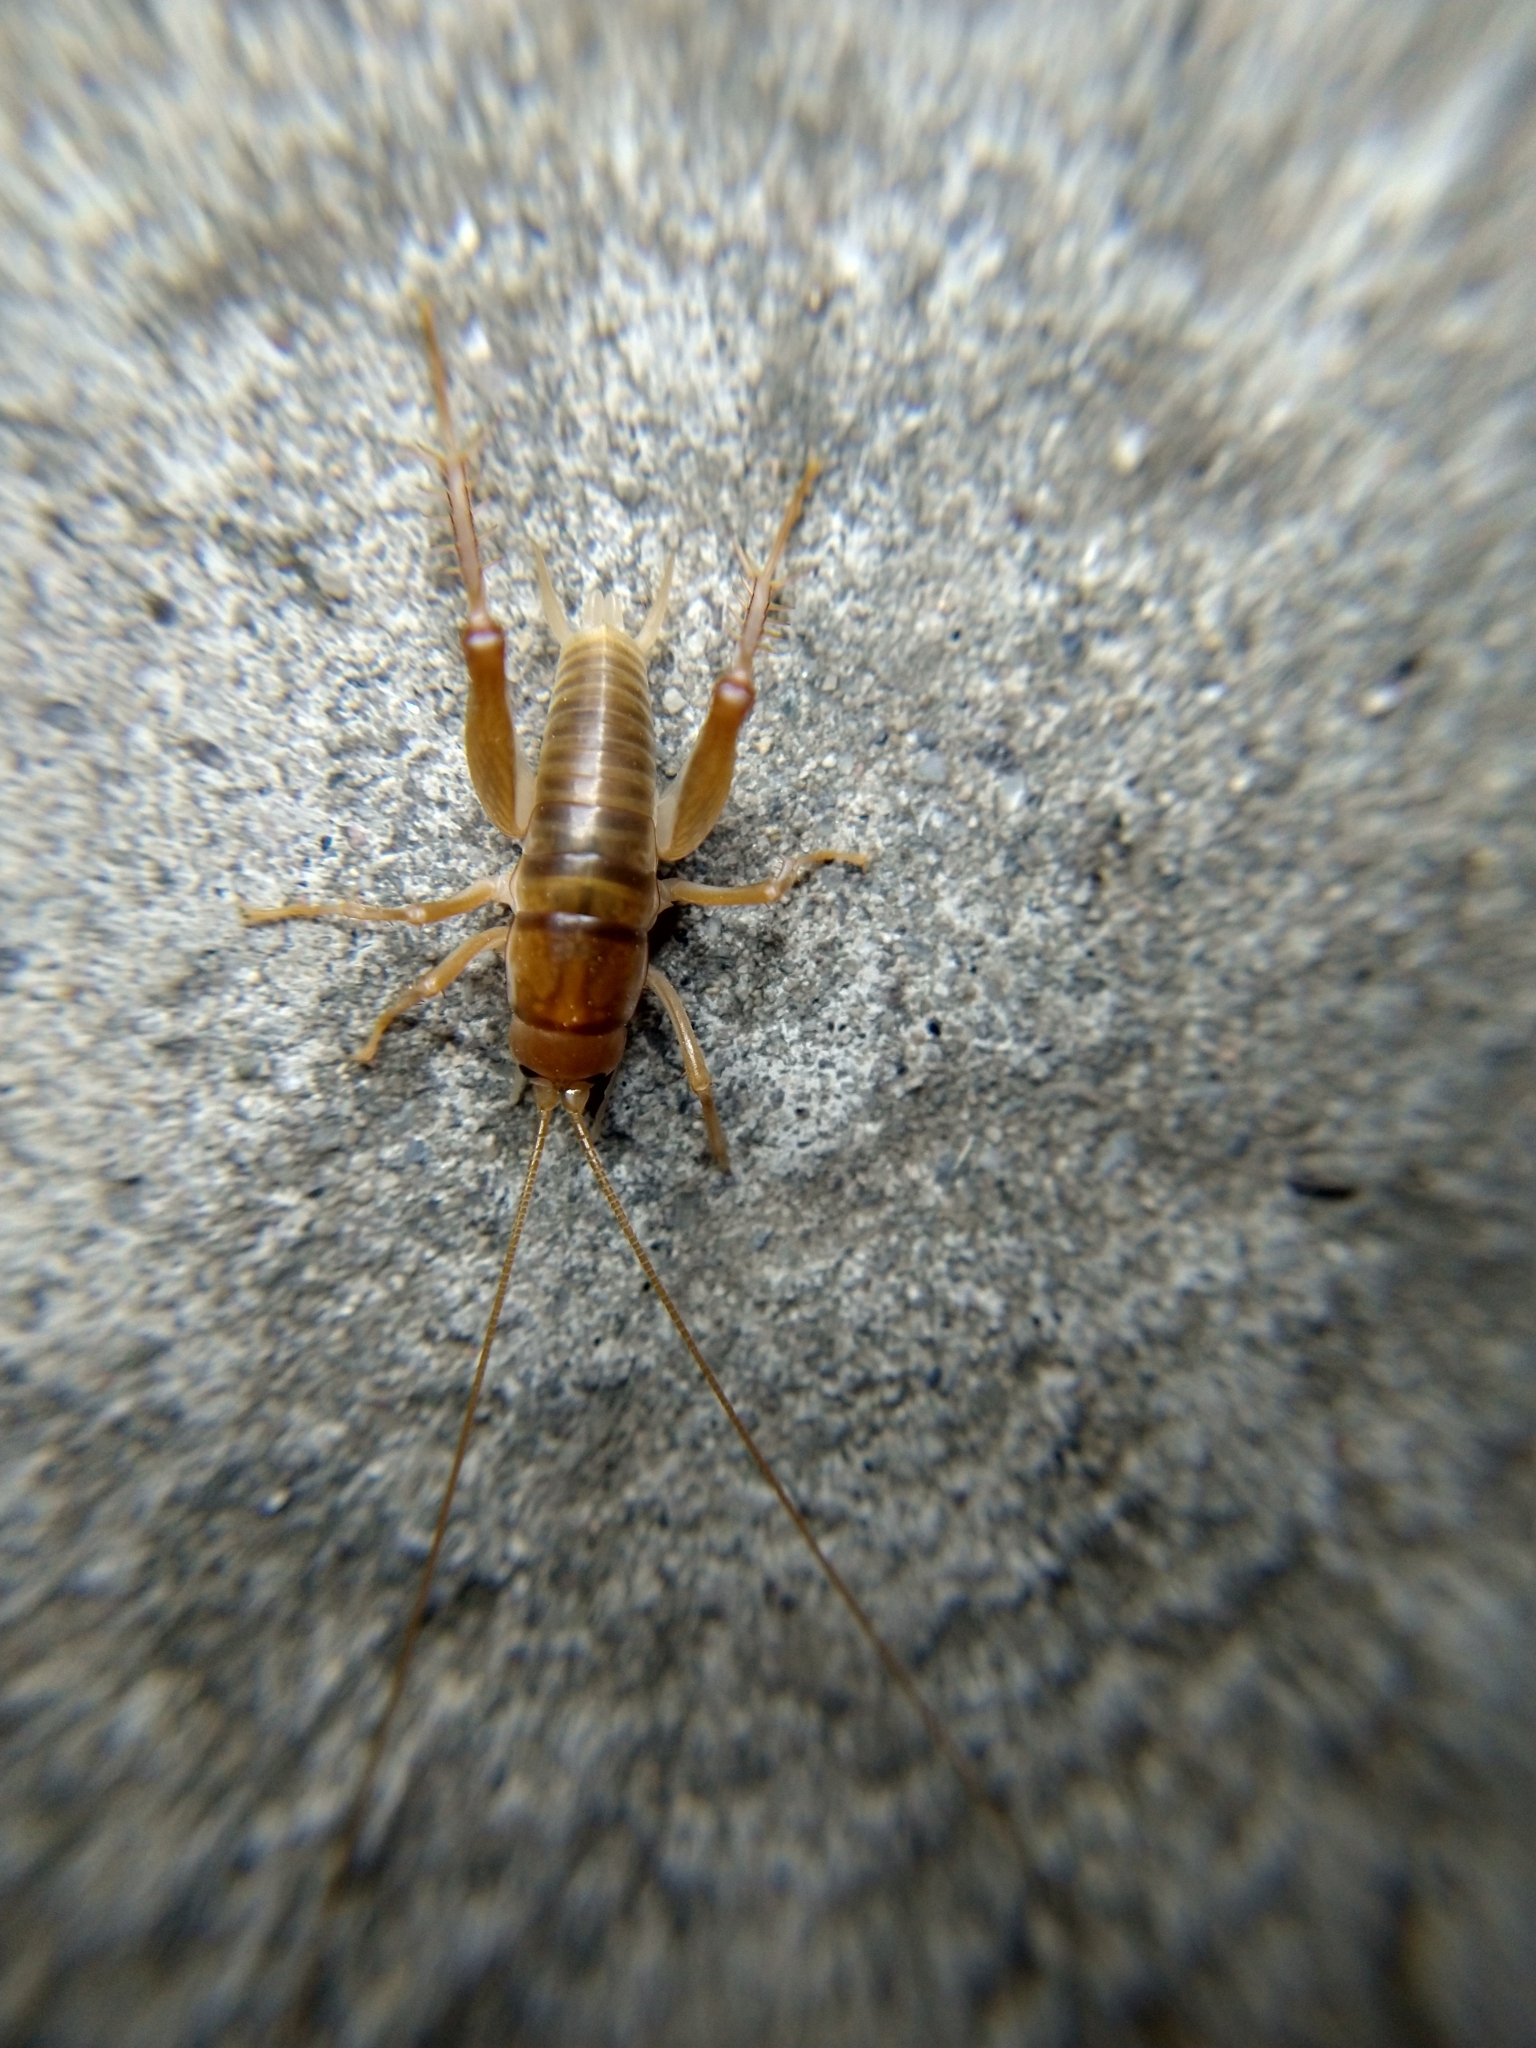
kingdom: Animalia
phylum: Arthropoda
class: Insecta
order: Orthoptera
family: Rhaphidophoridae
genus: Ceuthophilus
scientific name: Ceuthophilus californianus
